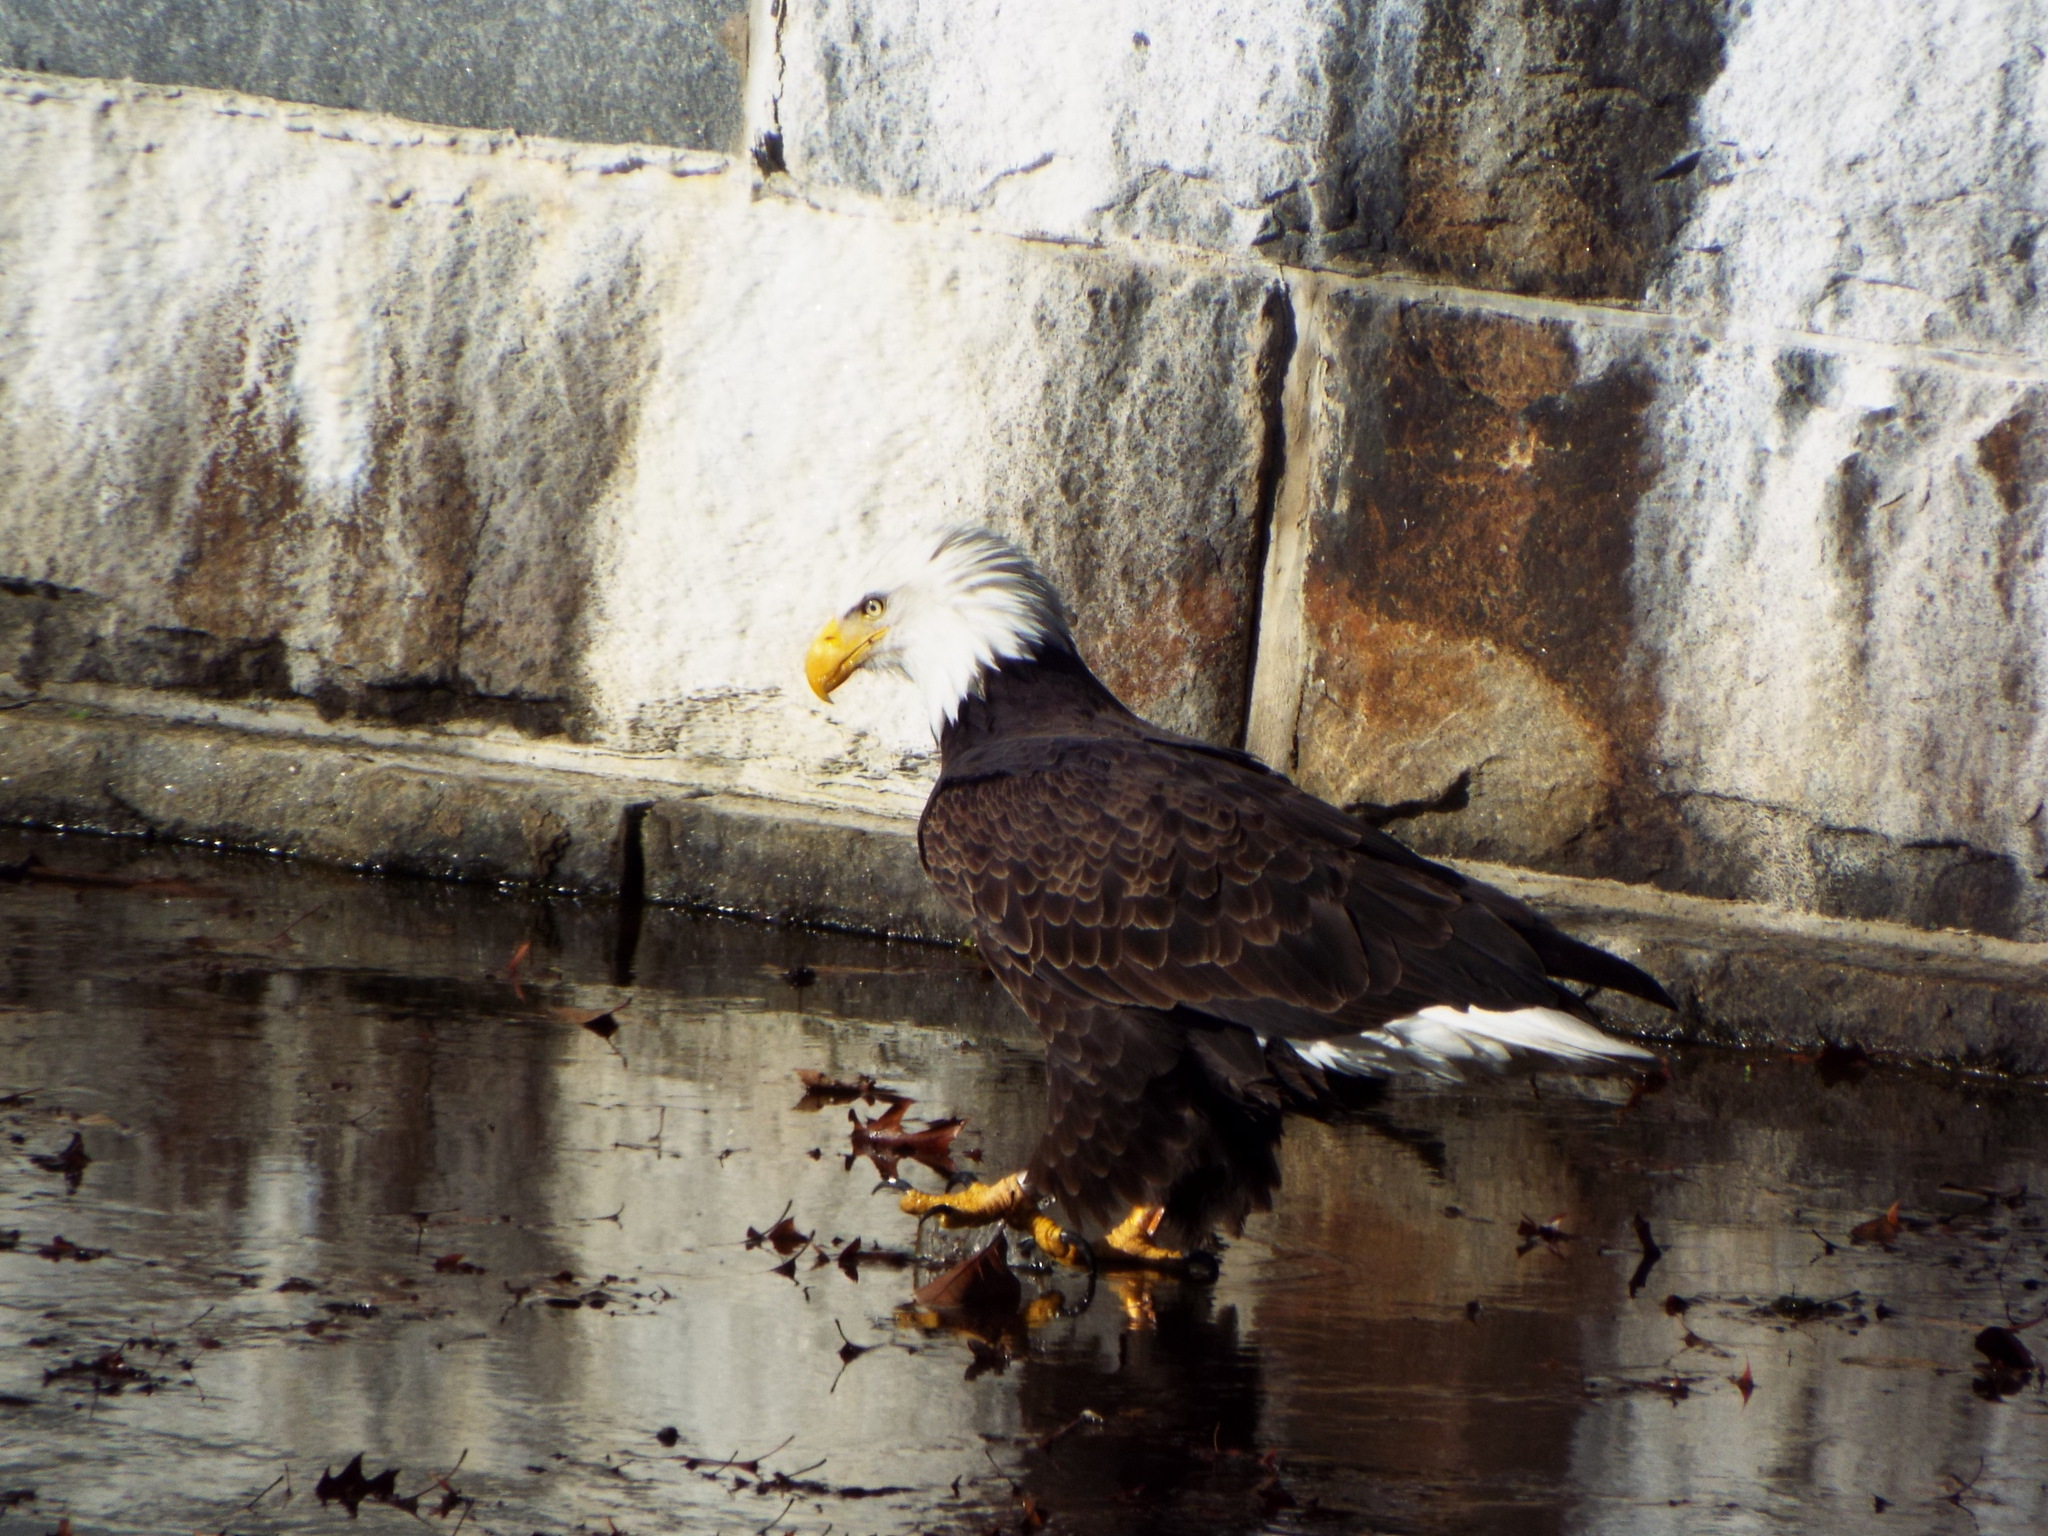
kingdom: Animalia
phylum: Chordata
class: Aves
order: Accipitriformes
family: Accipitridae
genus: Haliaeetus
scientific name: Haliaeetus leucocephalus
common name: Bald eagle
